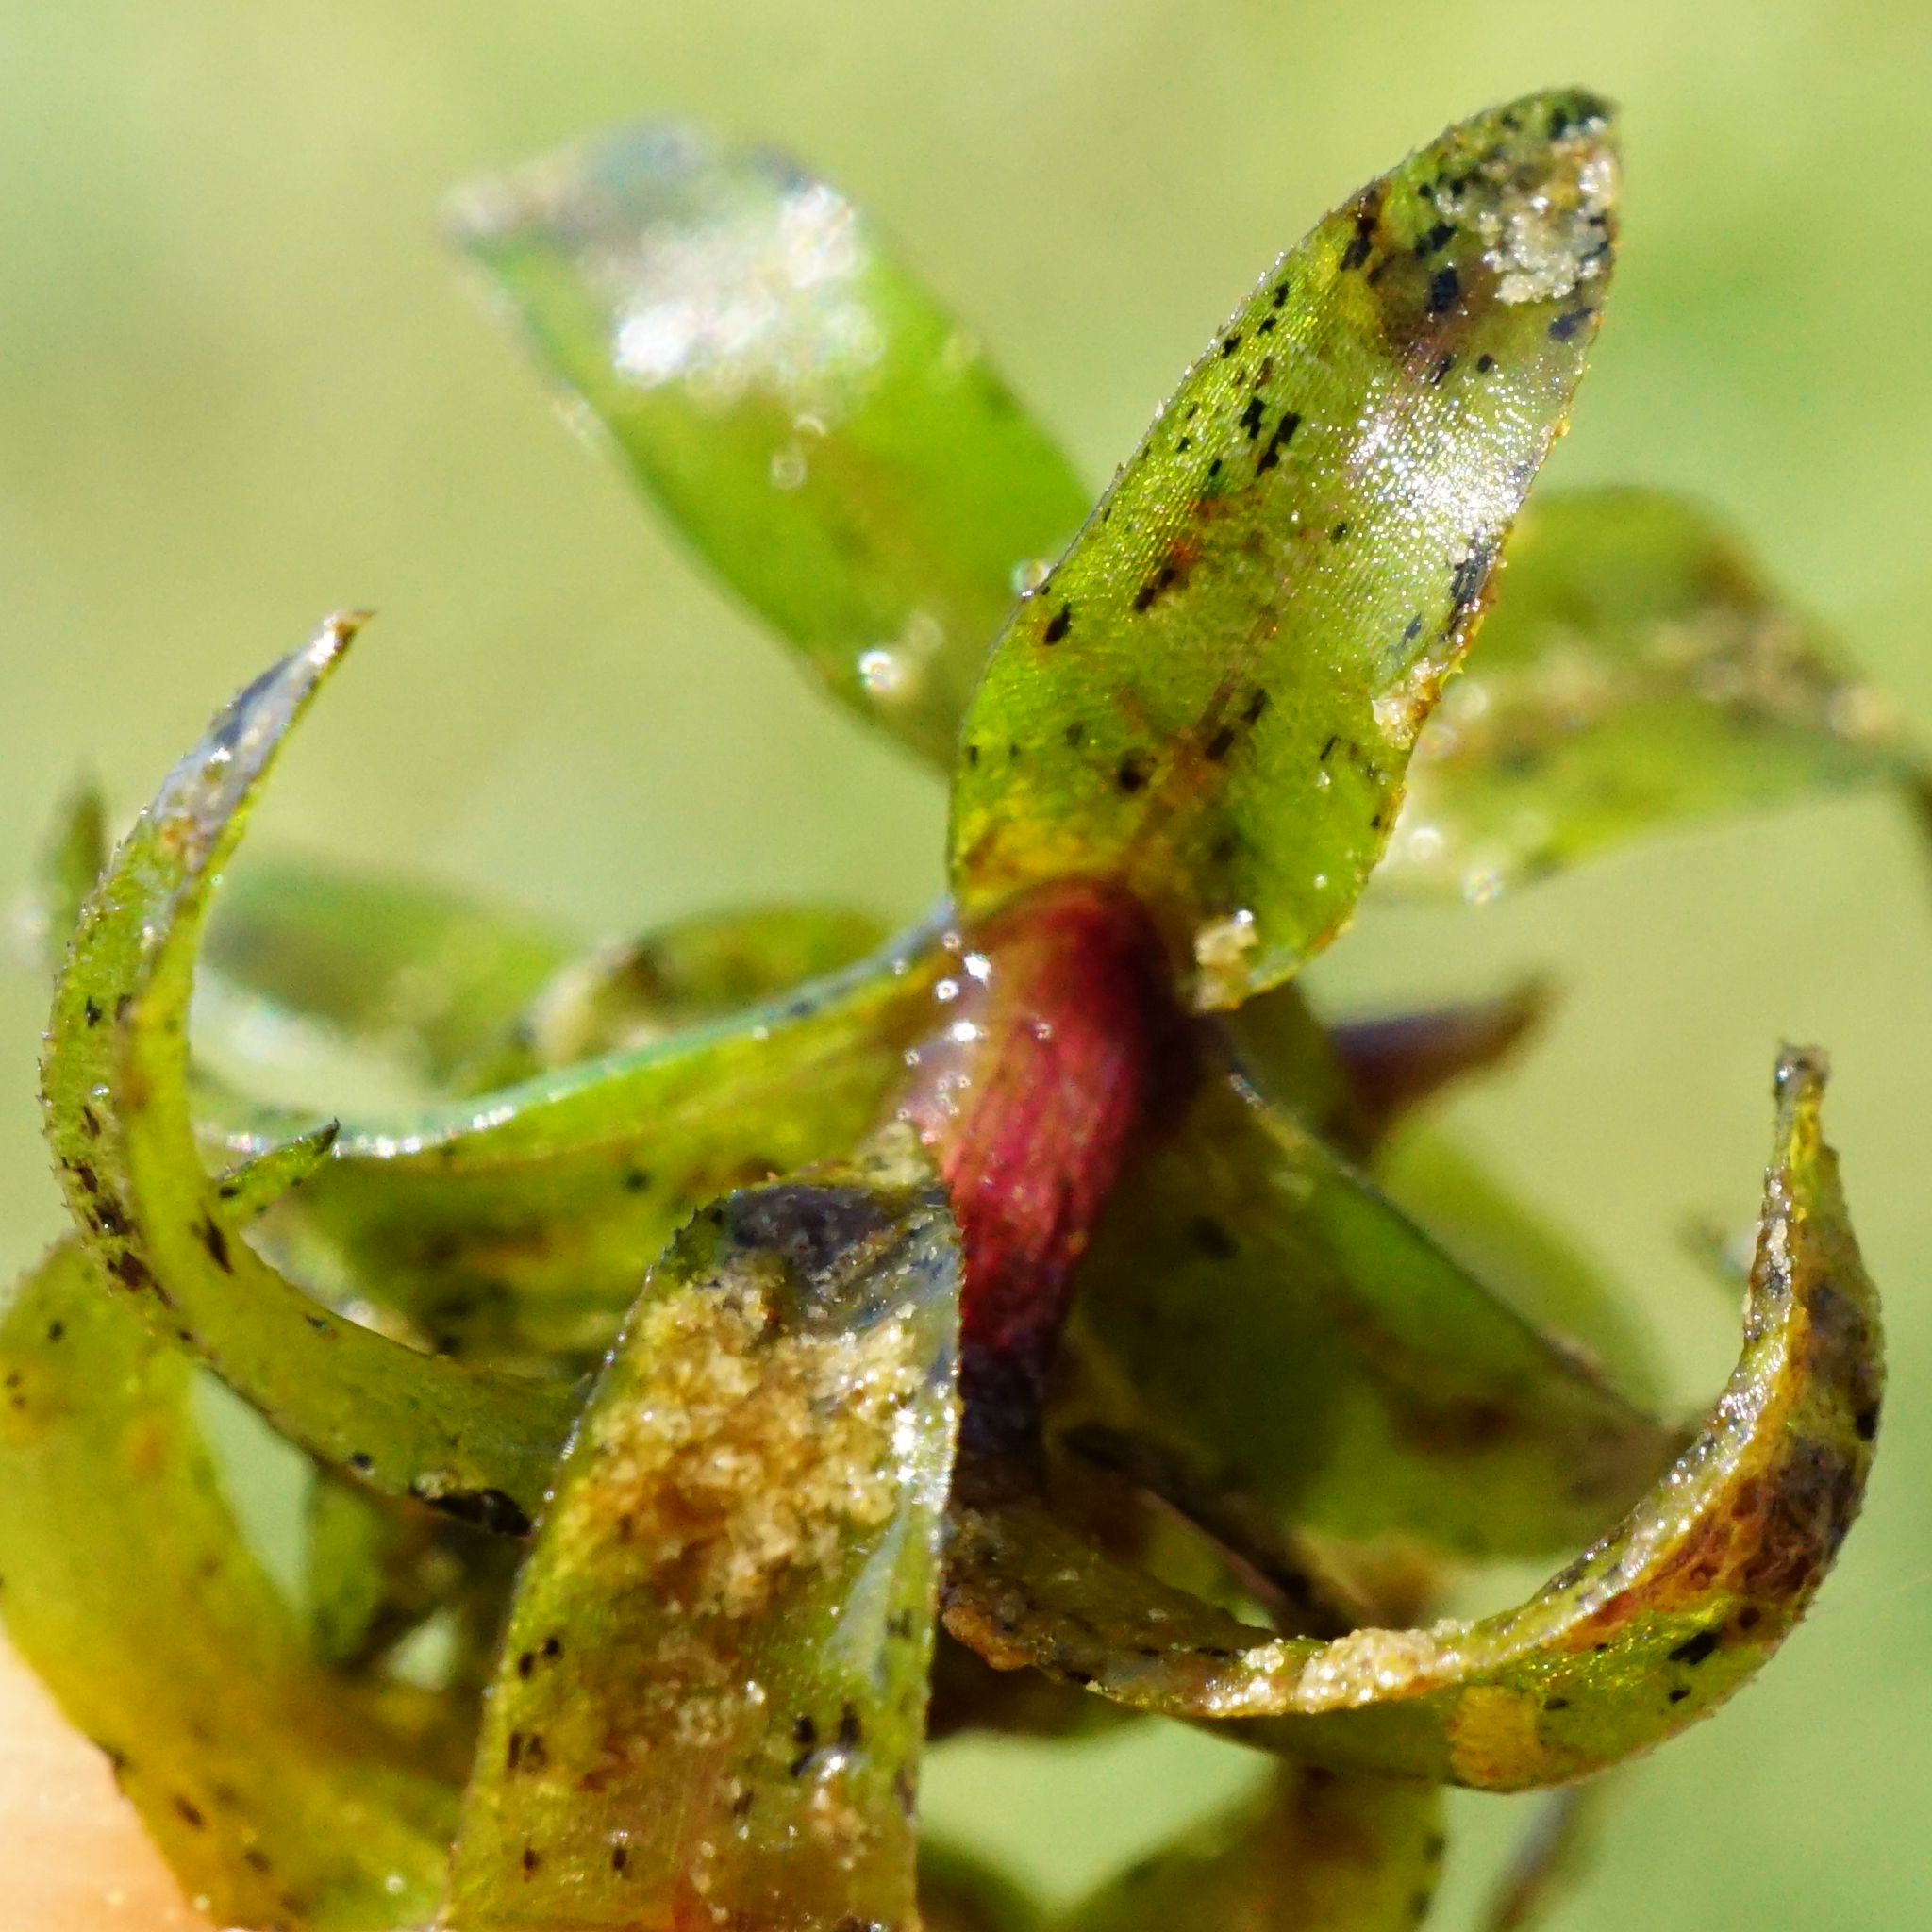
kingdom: Plantae
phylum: Tracheophyta
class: Liliopsida
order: Alismatales
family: Hydrocharitaceae
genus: Elodea
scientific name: Elodea canadensis
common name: Canadian waterweed
